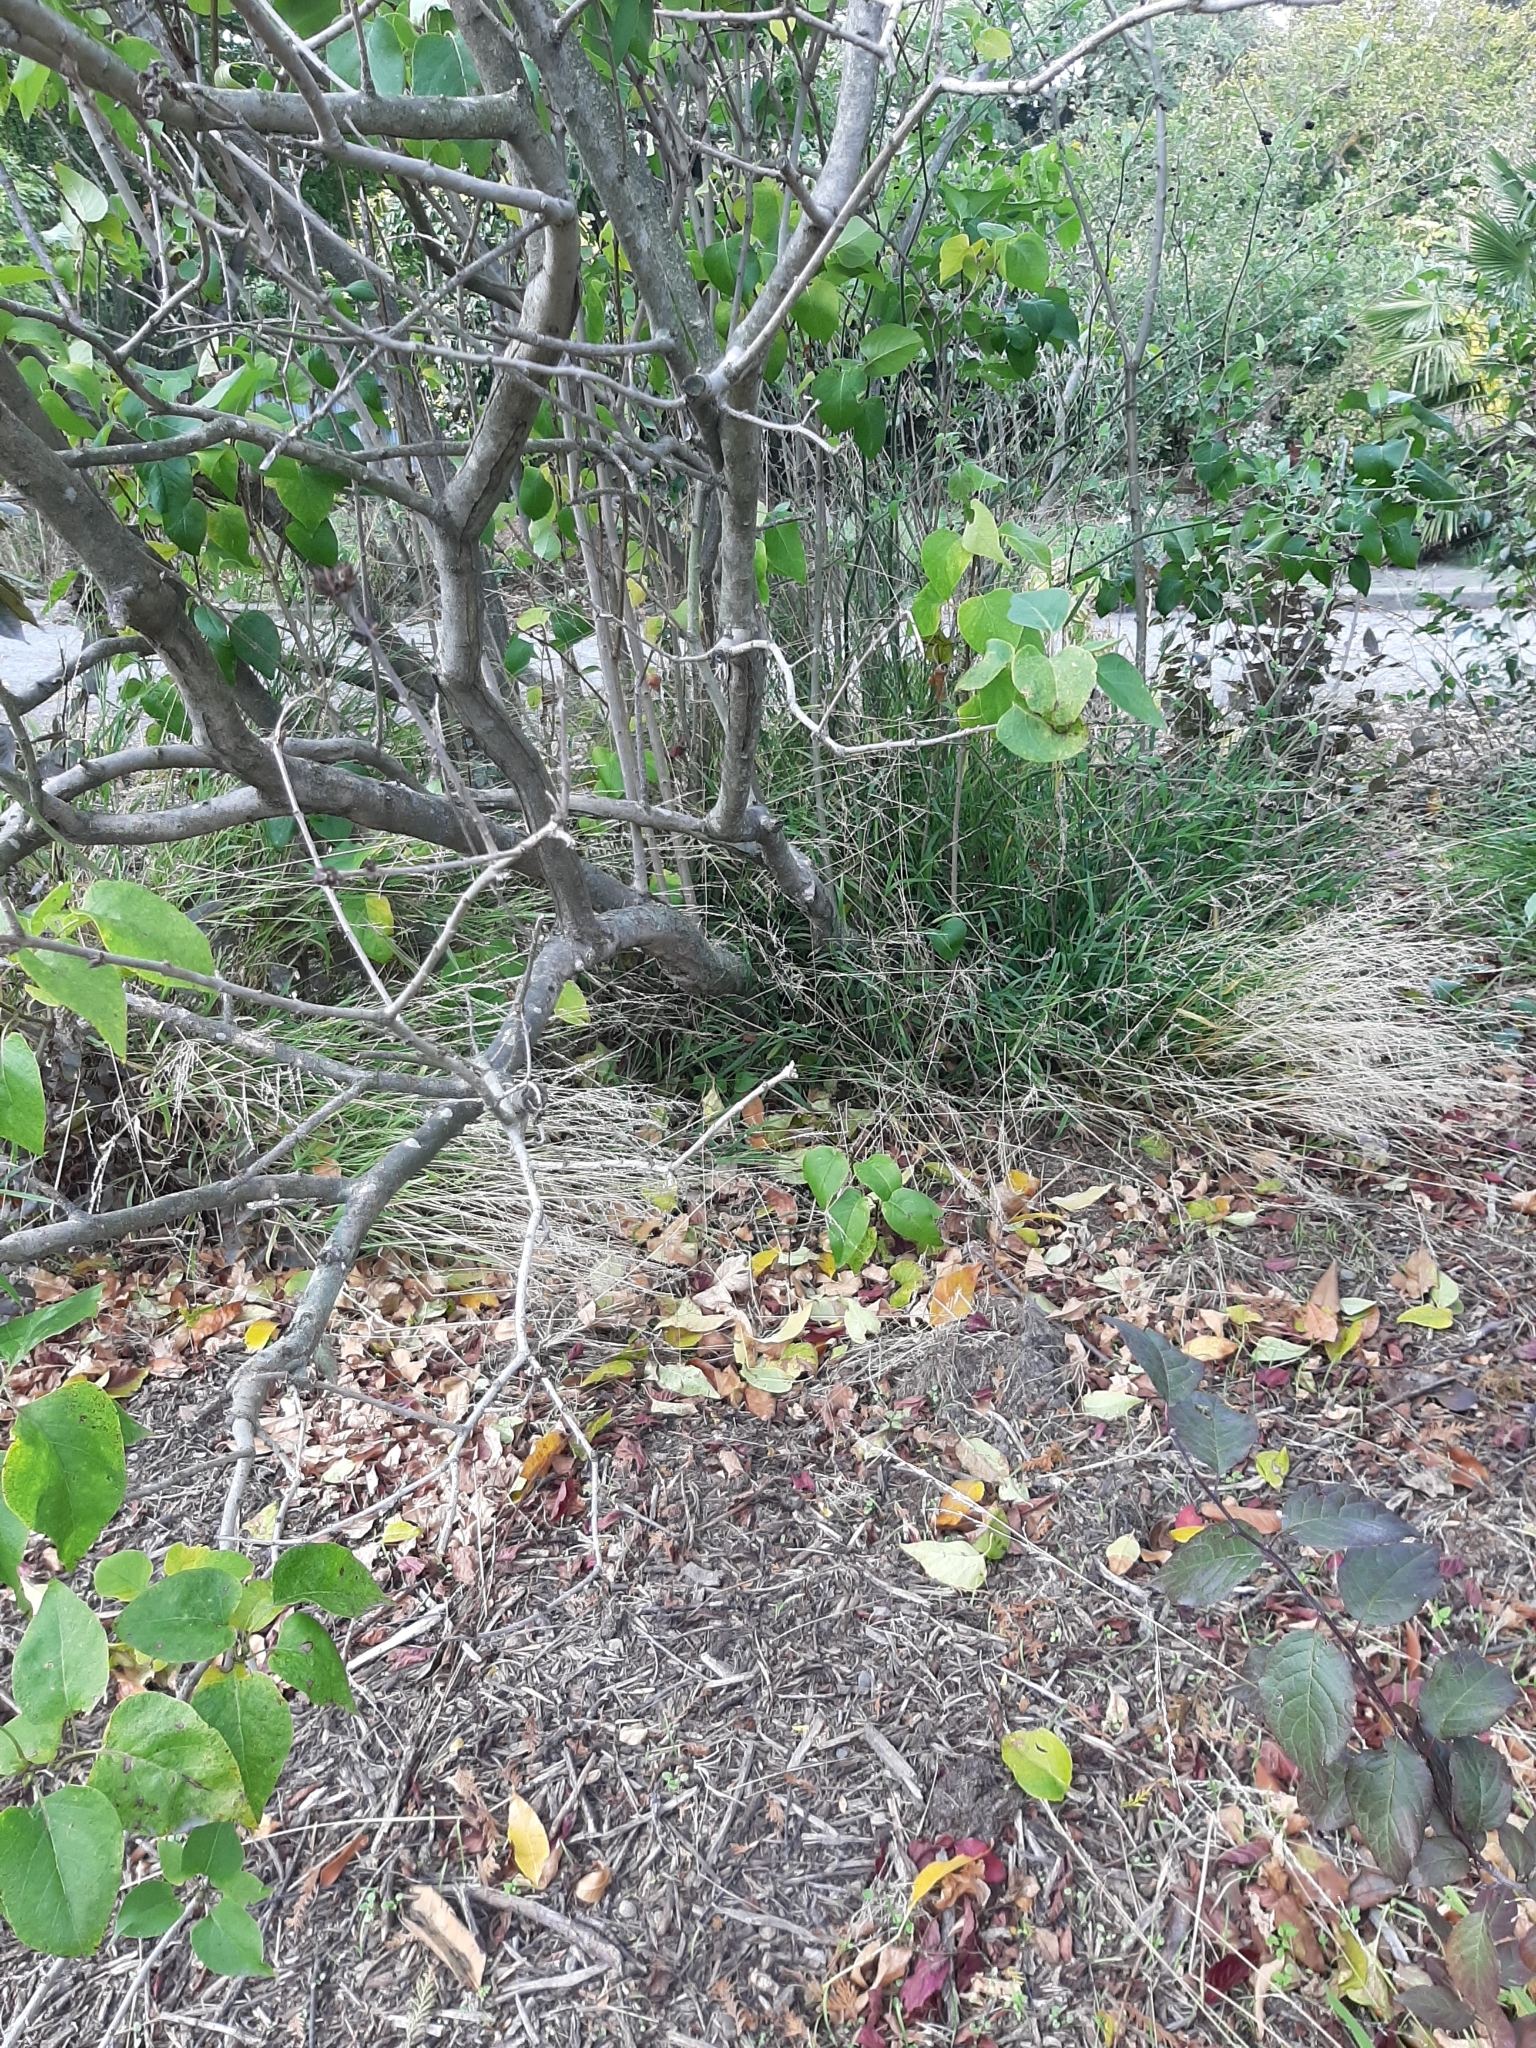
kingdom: Plantae
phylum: Tracheophyta
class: Liliopsida
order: Poales
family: Poaceae
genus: Ehrharta
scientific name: Ehrharta erecta
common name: Panic veldtgrass
